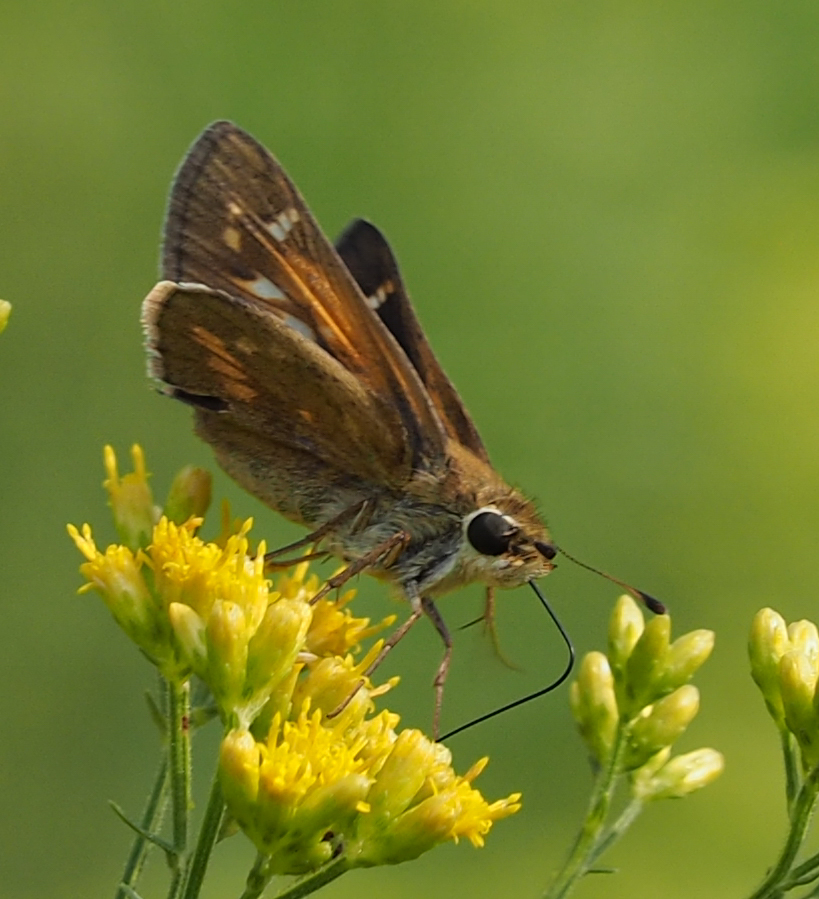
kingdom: Animalia
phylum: Arthropoda
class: Insecta
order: Lepidoptera
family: Hesperiidae
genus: Atalopedes
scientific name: Atalopedes
